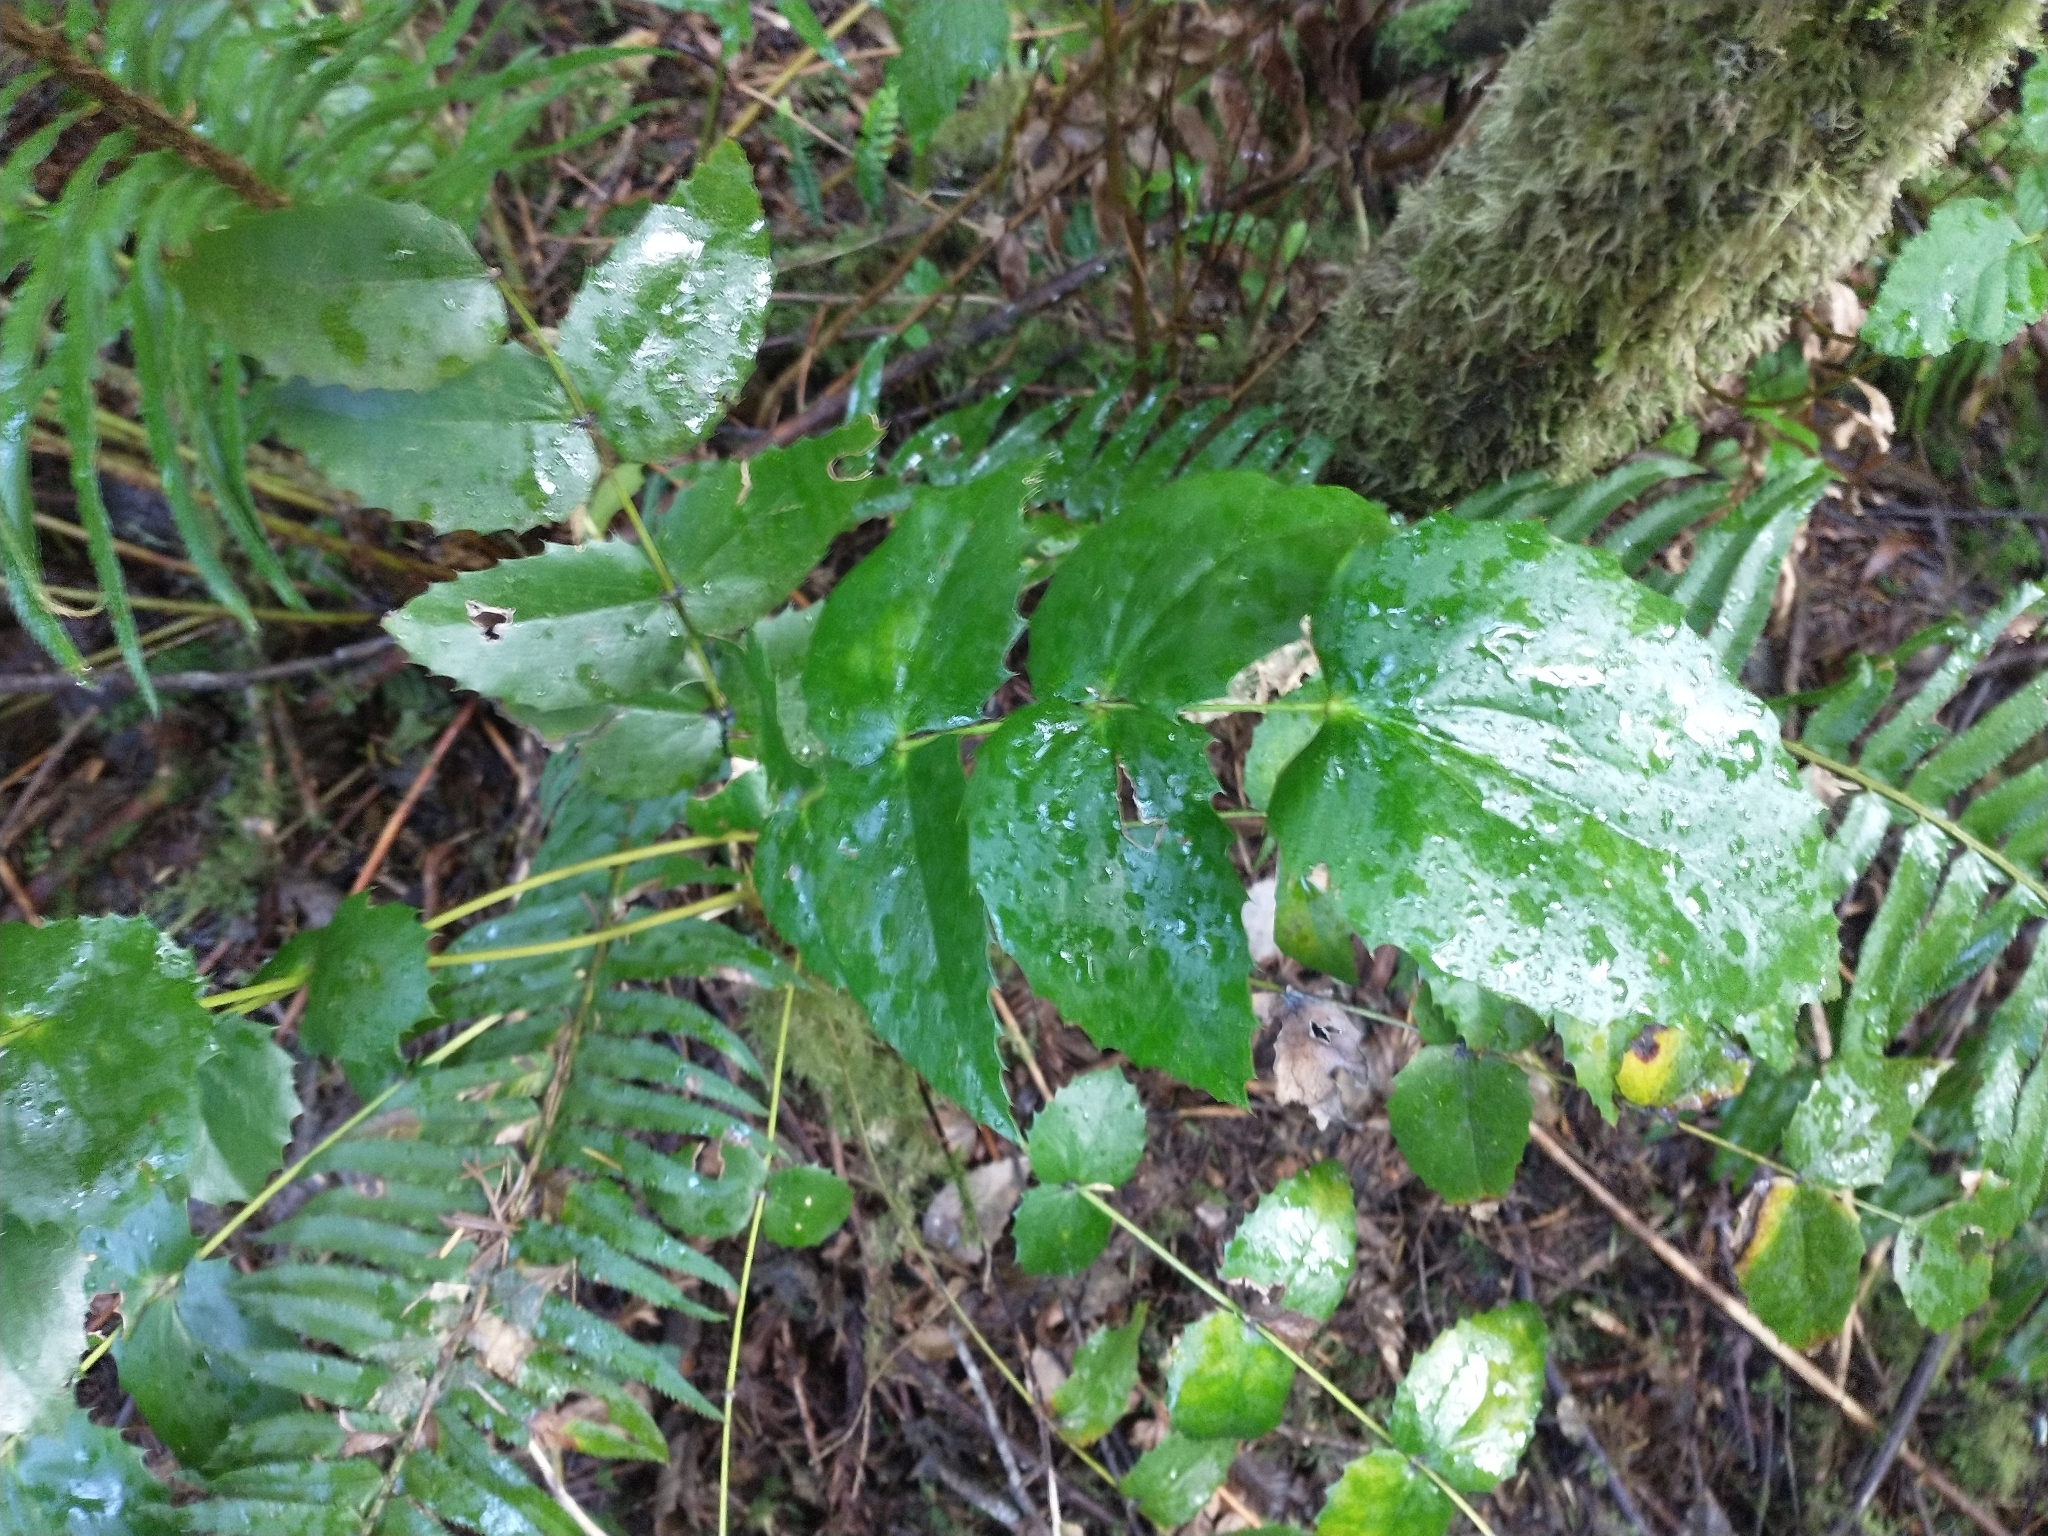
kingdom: Plantae
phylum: Tracheophyta
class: Magnoliopsida
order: Ranunculales
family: Berberidaceae
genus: Mahonia
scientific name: Mahonia nervosa
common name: Cascade oregon-grape
